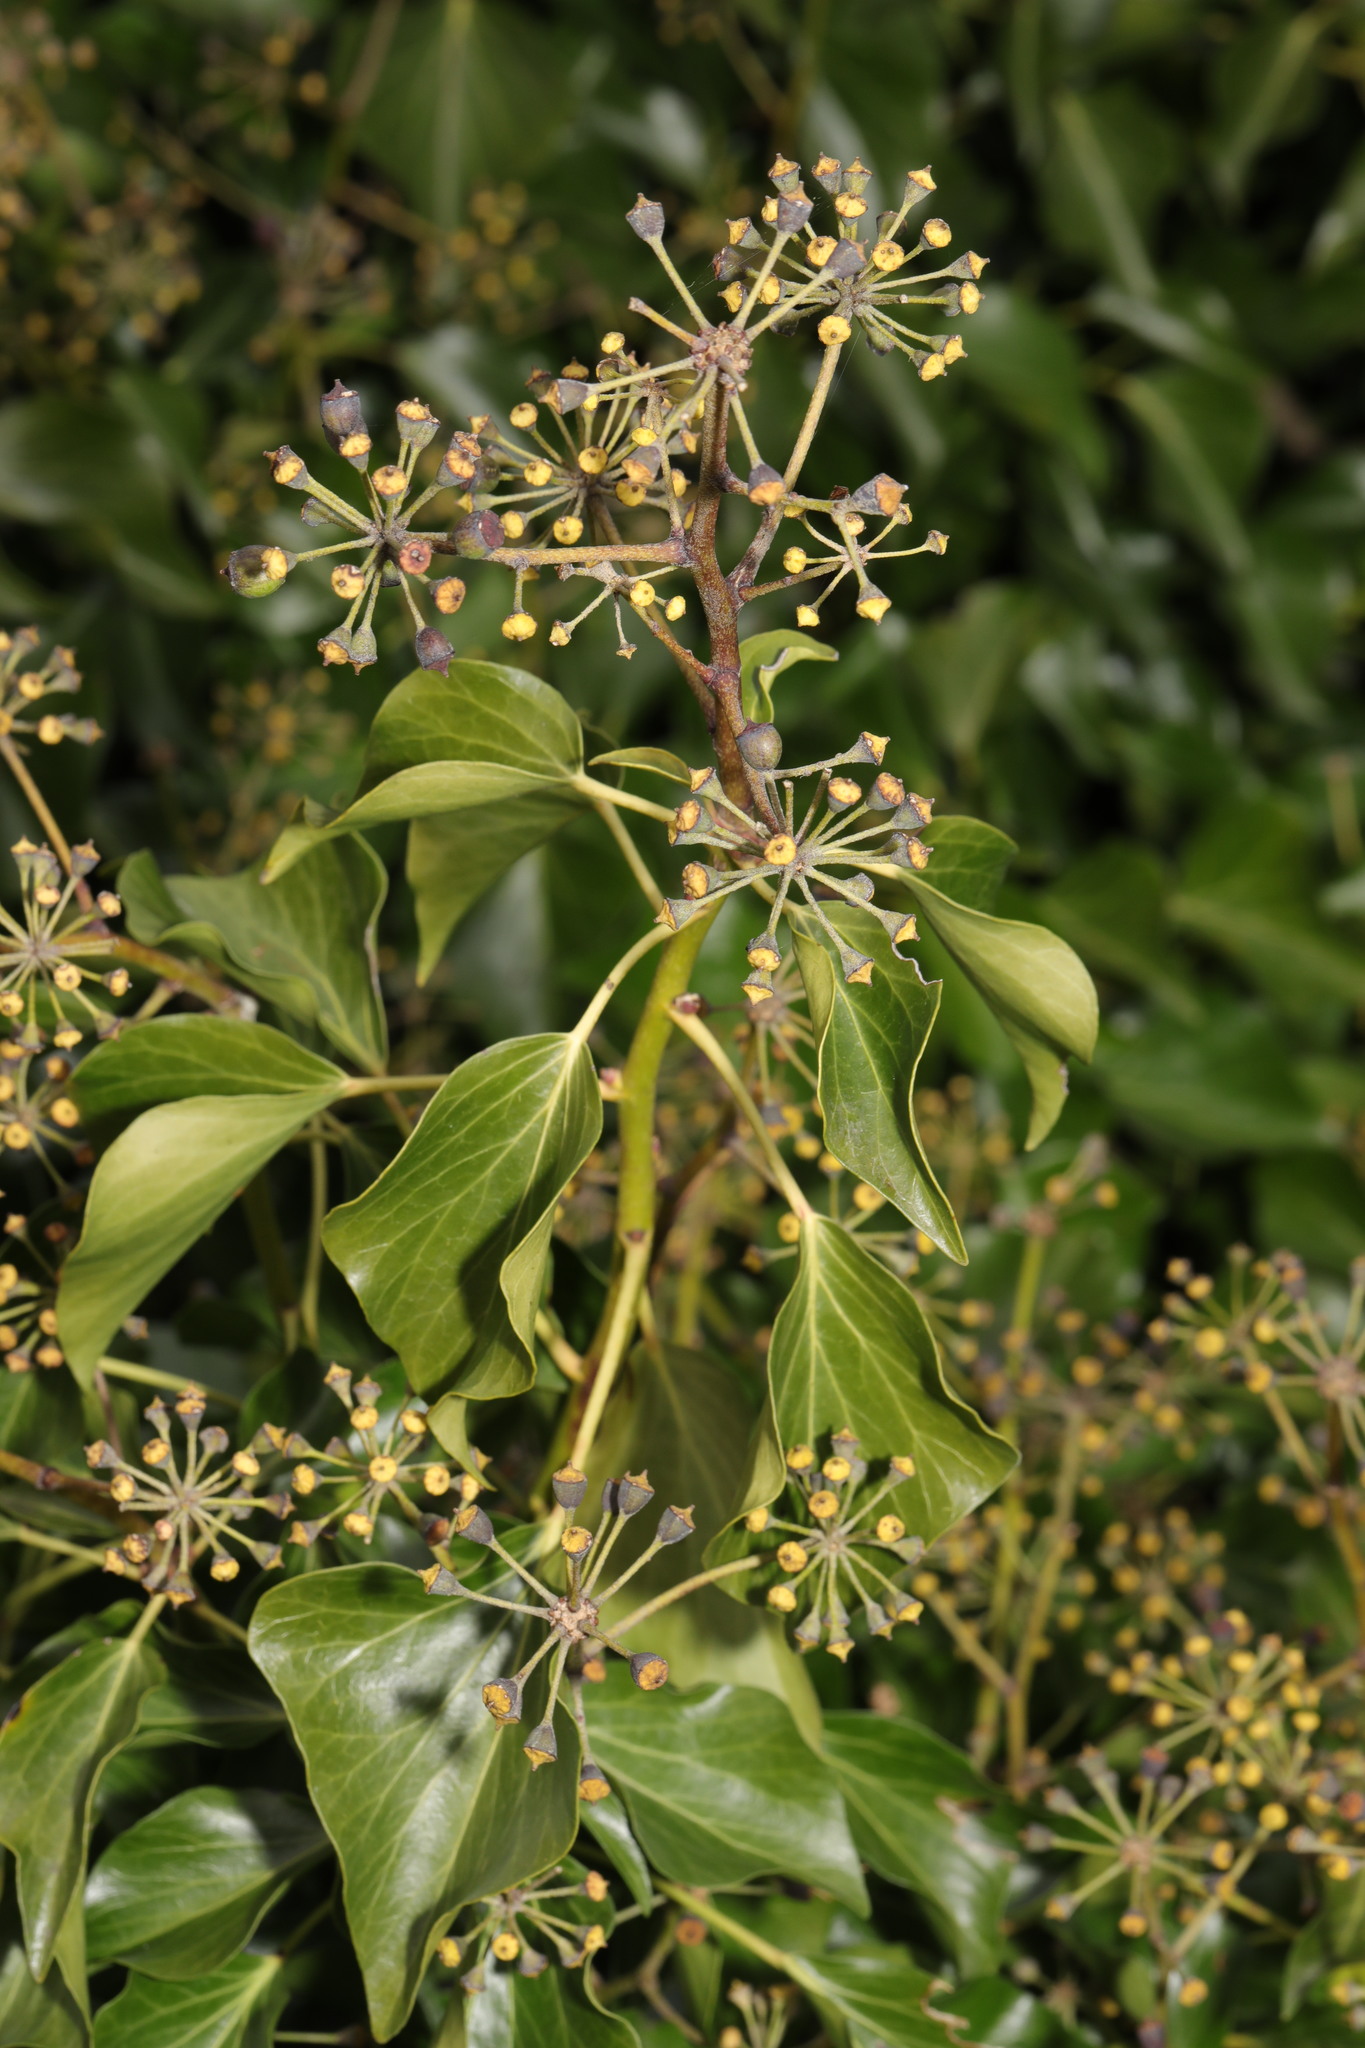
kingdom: Plantae
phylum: Tracheophyta
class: Magnoliopsida
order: Apiales
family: Araliaceae
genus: Hedera
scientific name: Hedera helix
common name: Ivy
